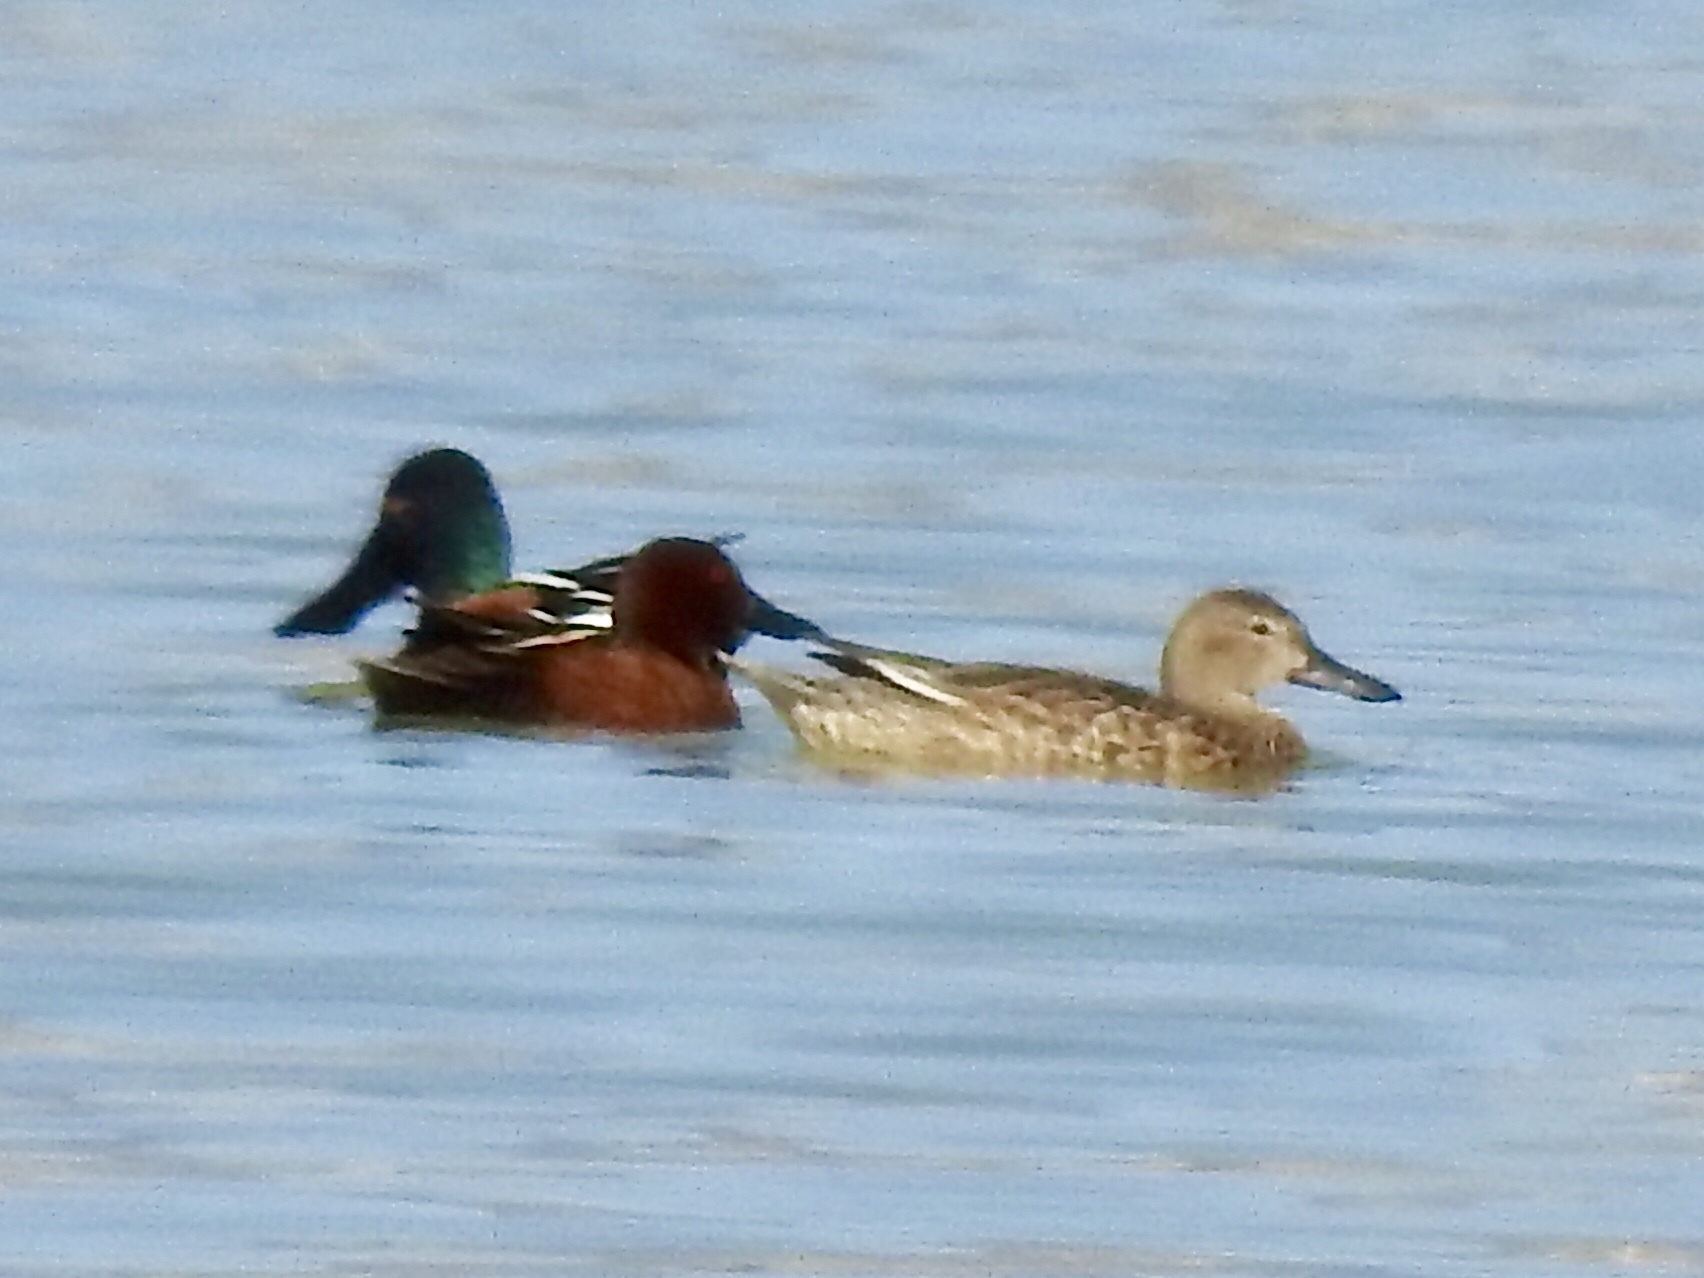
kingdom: Animalia
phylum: Chordata
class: Aves
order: Anseriformes
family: Anatidae
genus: Spatula
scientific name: Spatula cyanoptera
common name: Cinnamon teal
